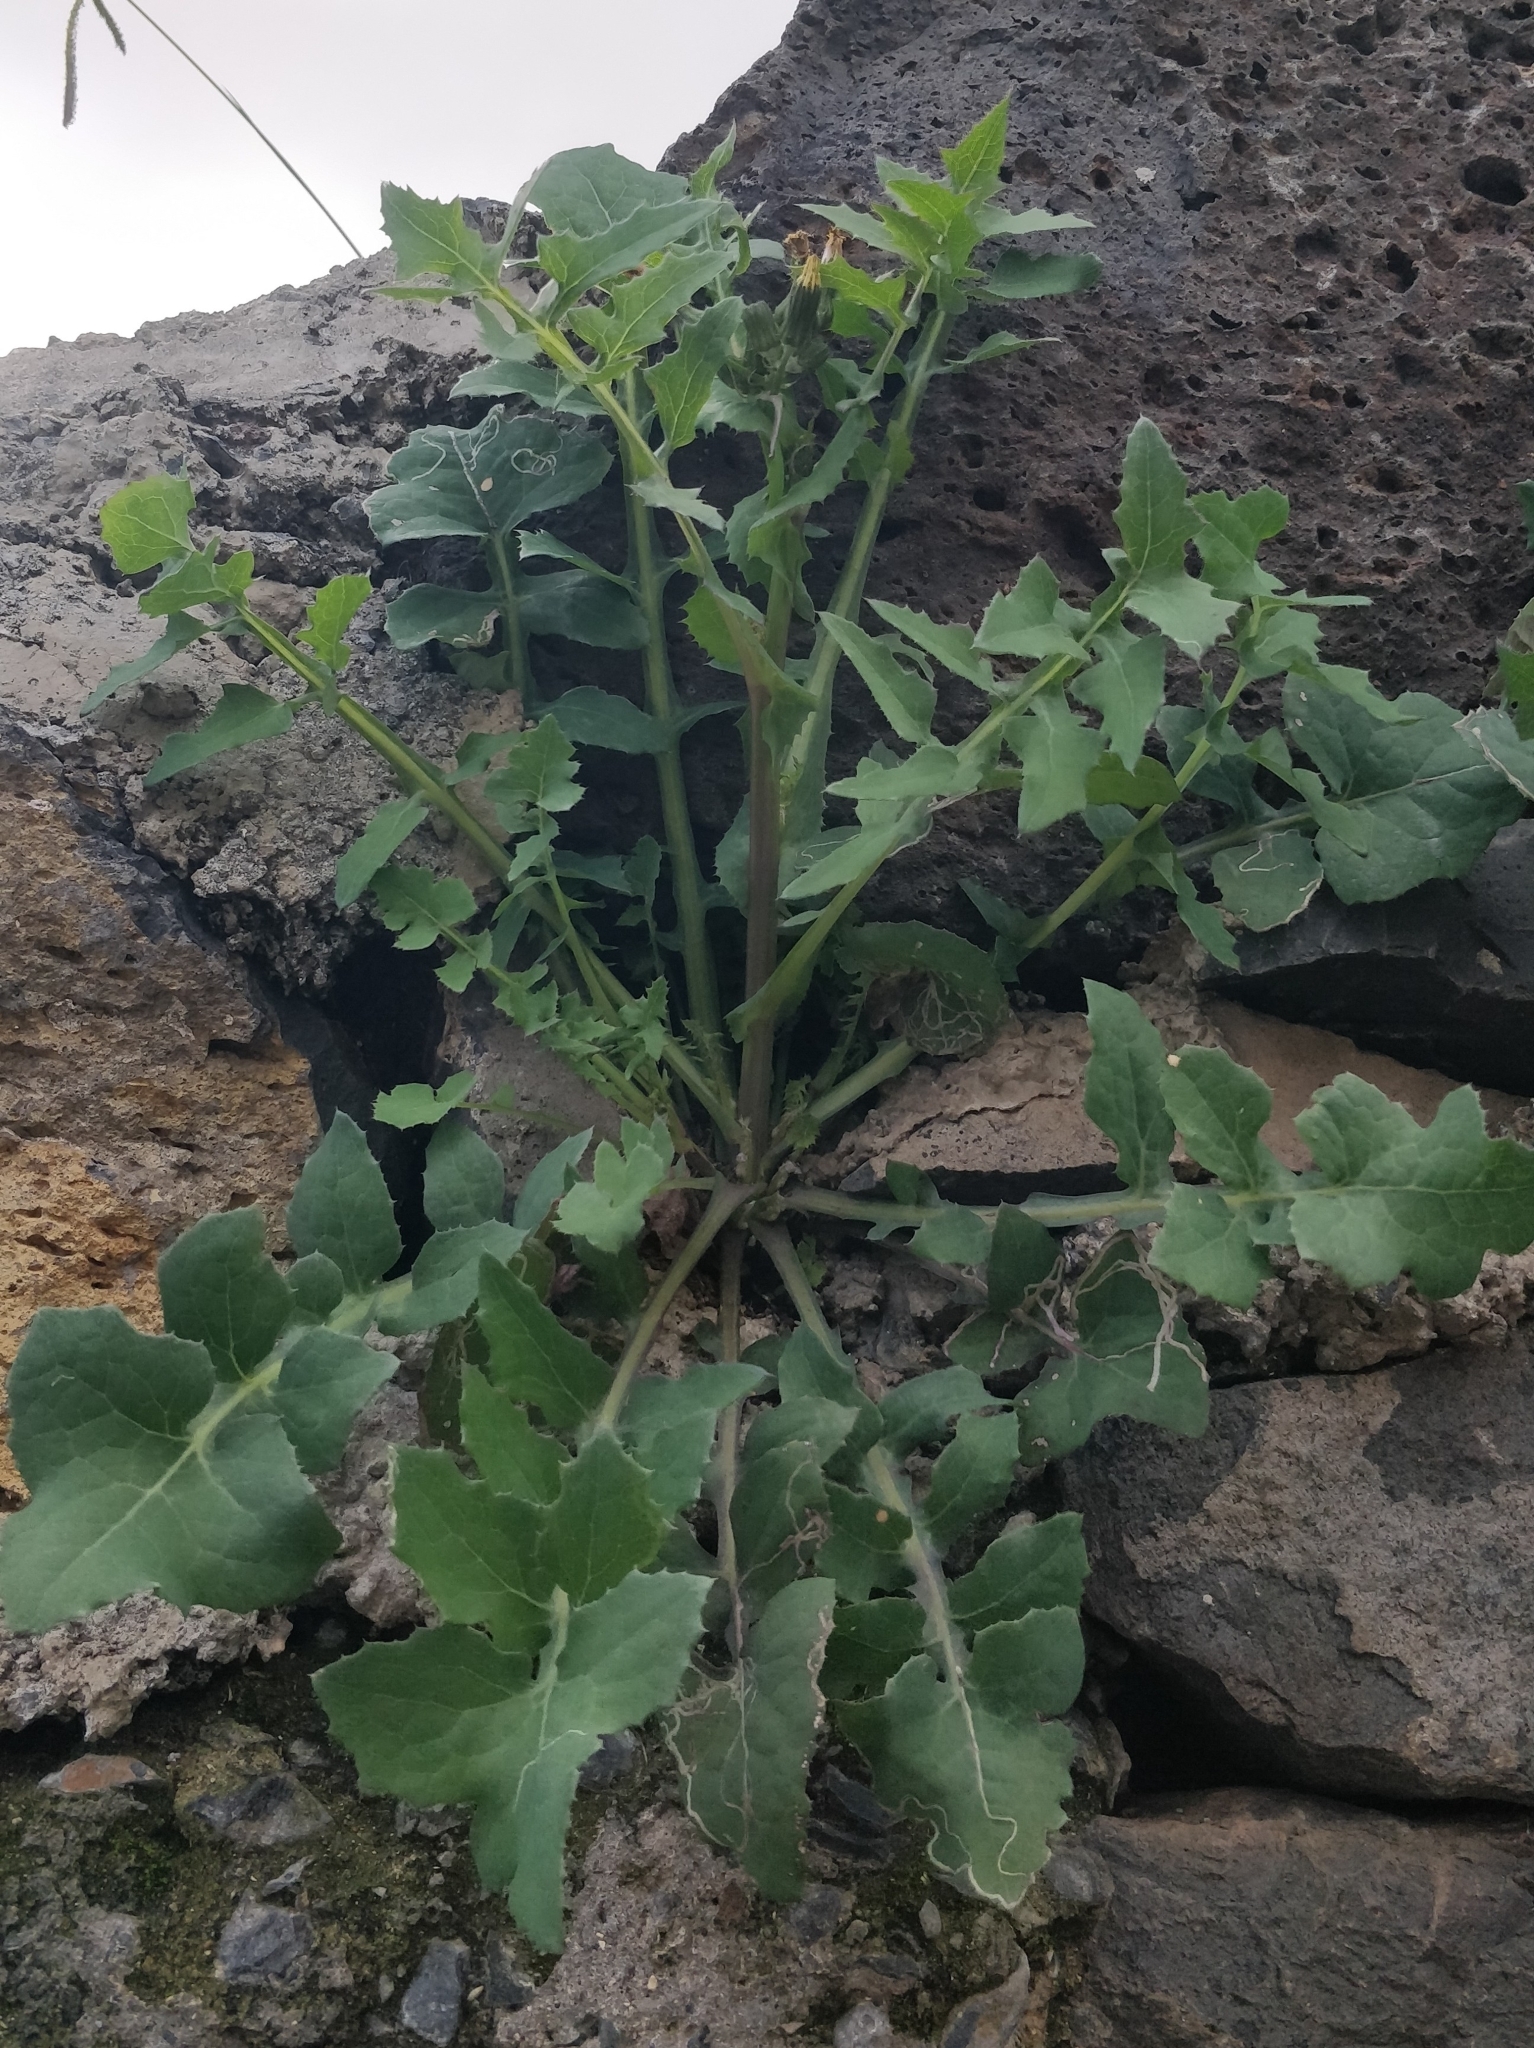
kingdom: Plantae
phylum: Tracheophyta
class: Magnoliopsida
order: Asterales
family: Asteraceae
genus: Sonchus
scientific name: Sonchus oleraceus
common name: Common sowthistle
